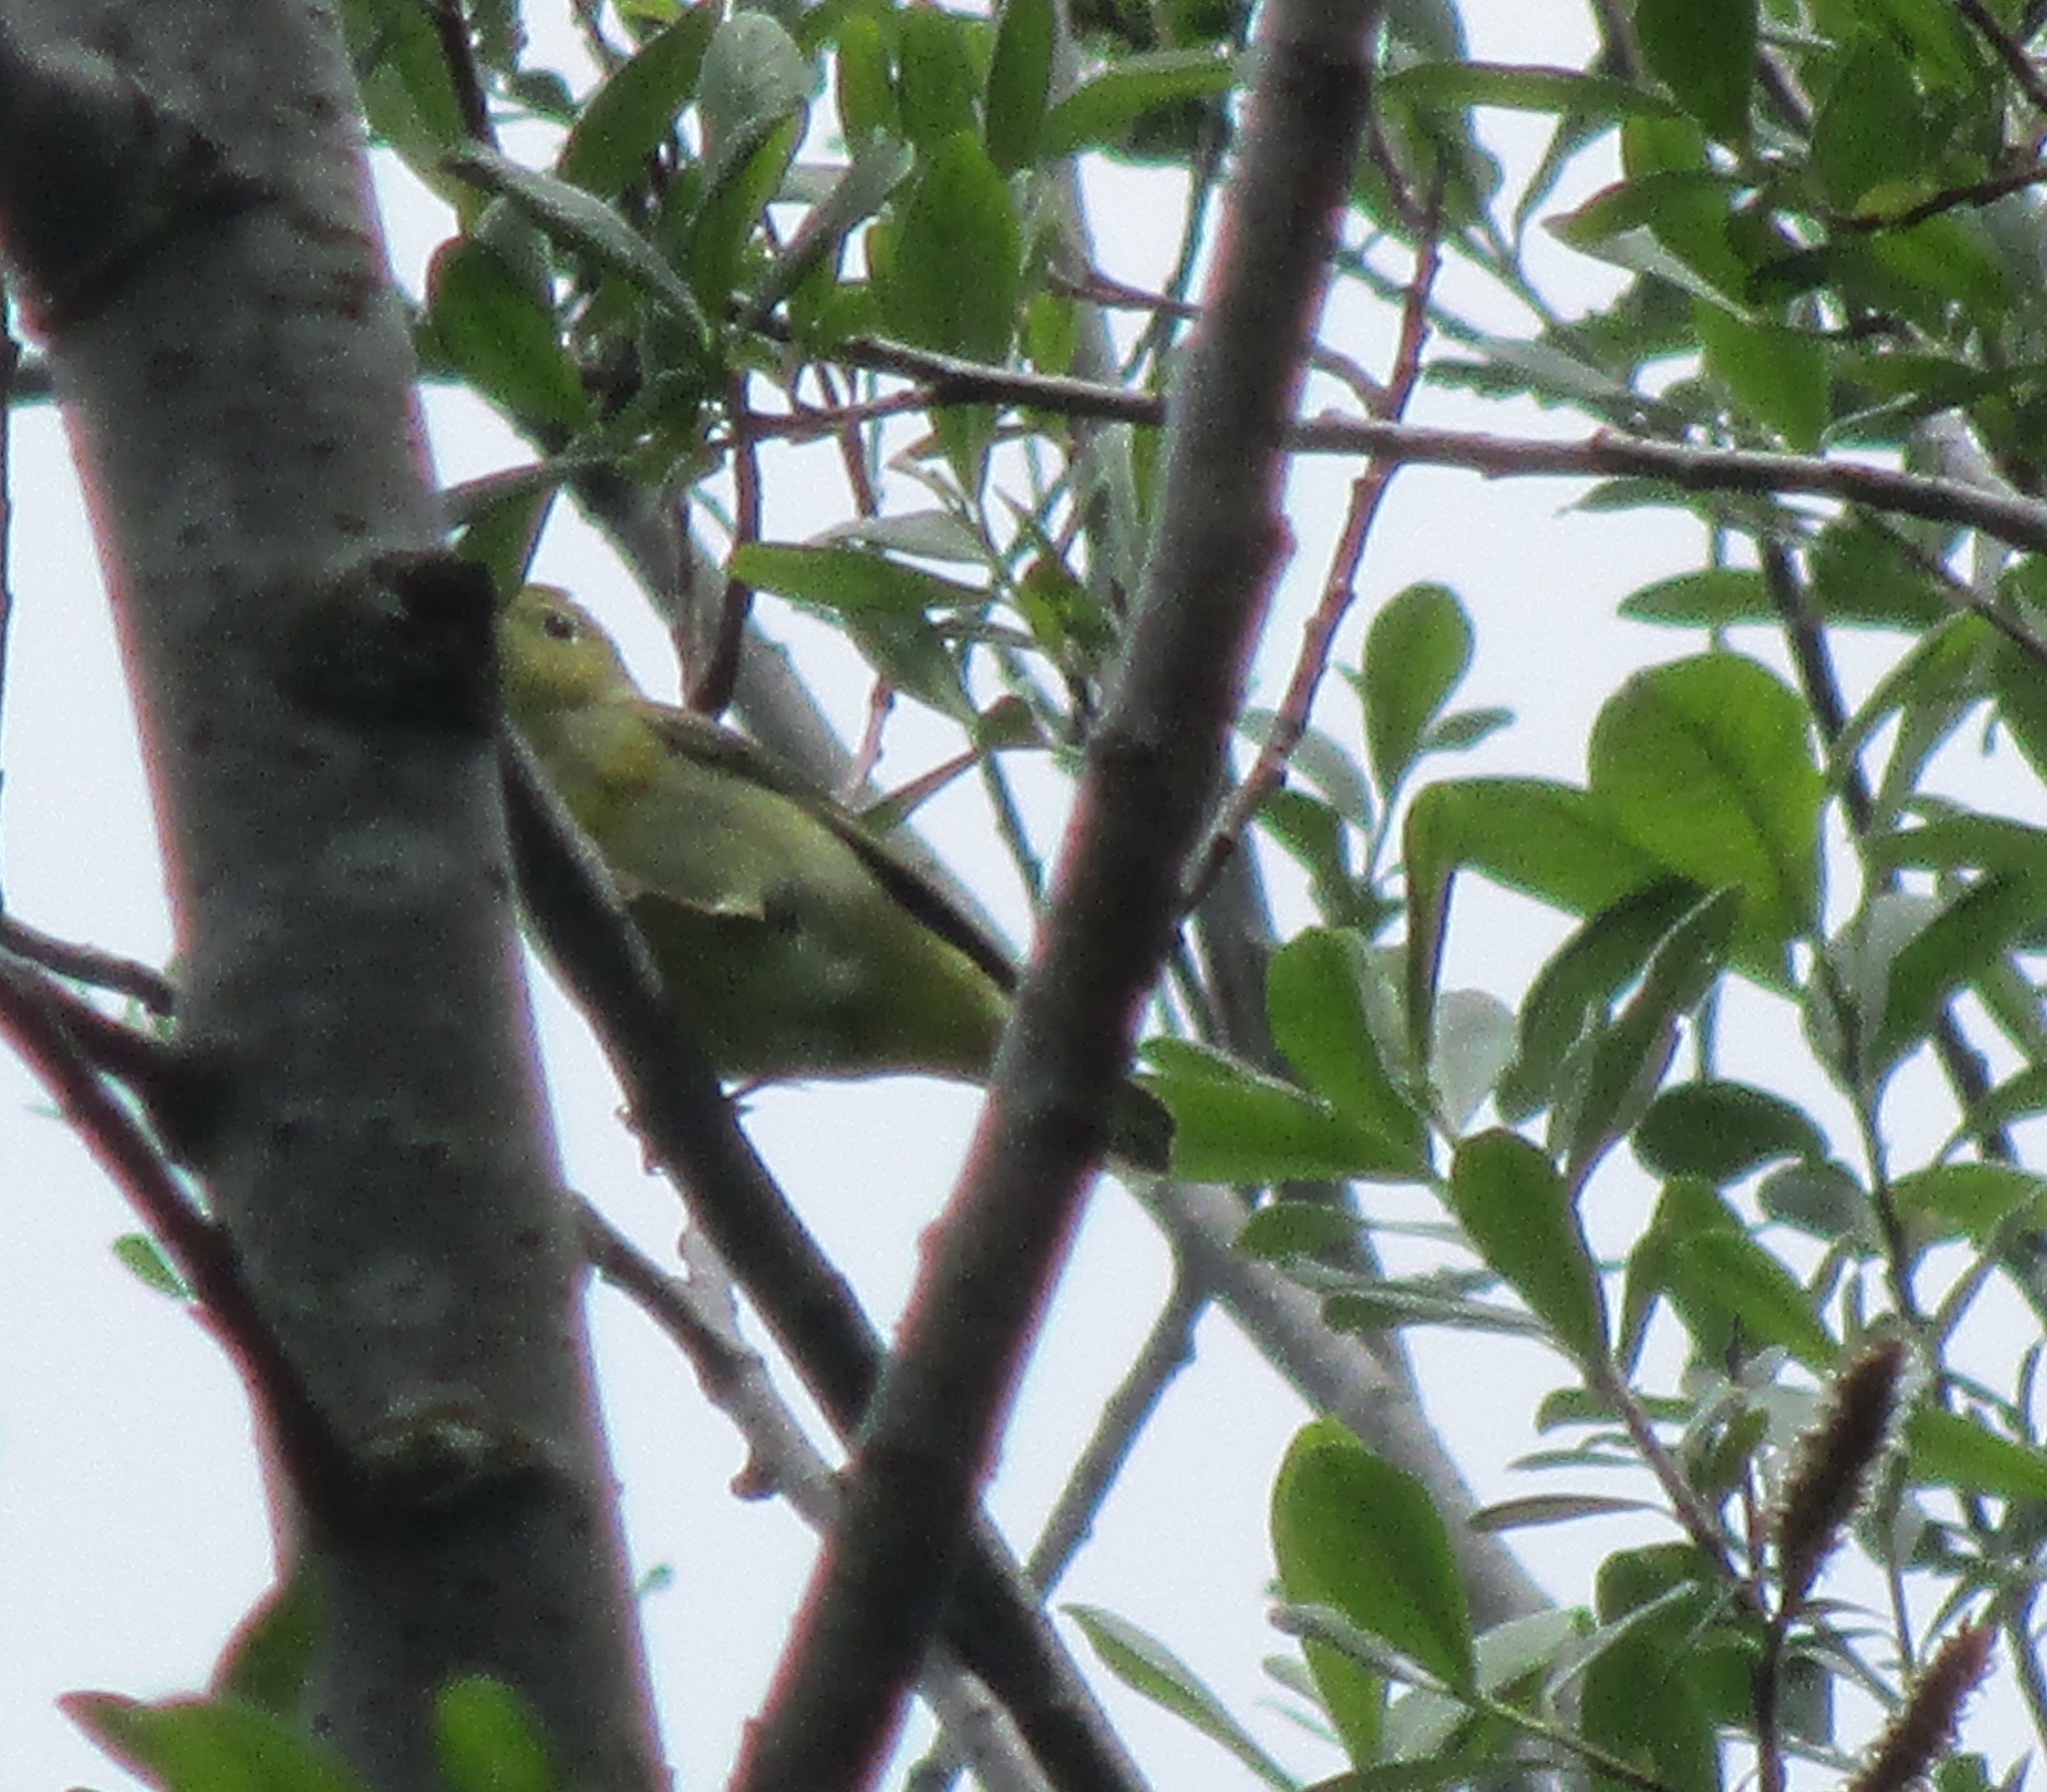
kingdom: Animalia
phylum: Chordata
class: Aves
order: Passeriformes
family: Parulidae
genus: Cardellina
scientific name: Cardellina pusilla
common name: Wilson's warbler
